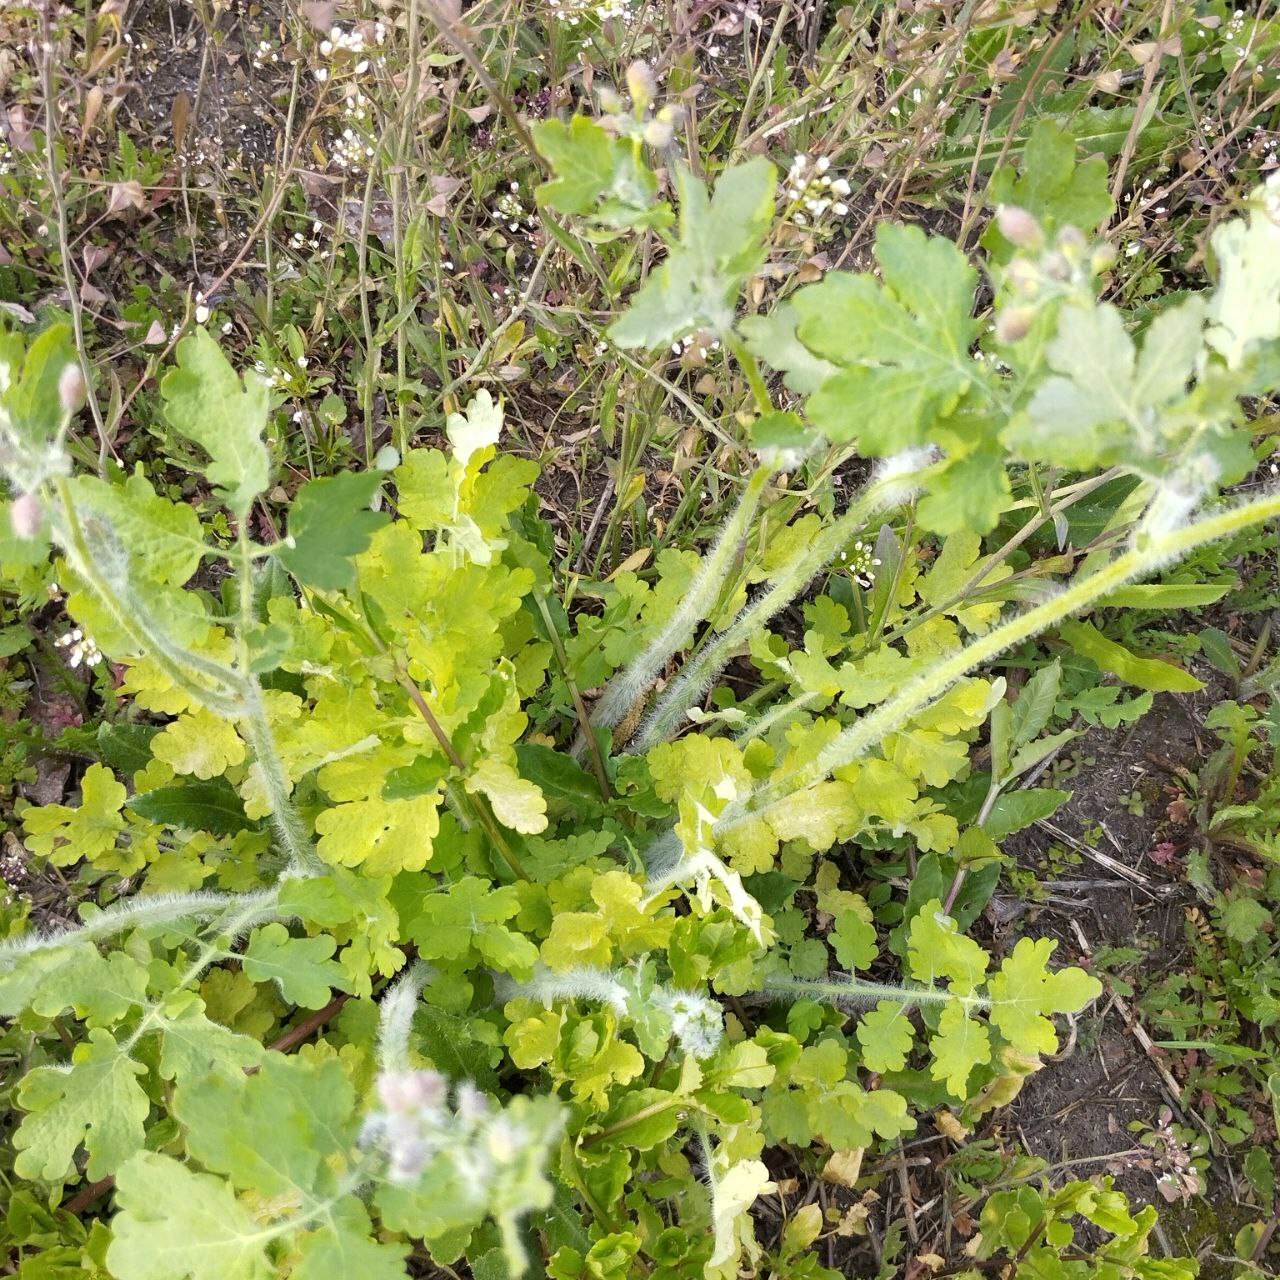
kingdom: Plantae
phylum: Tracheophyta
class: Magnoliopsida
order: Ranunculales
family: Papaveraceae
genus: Chelidonium
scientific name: Chelidonium majus
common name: Greater celandine
